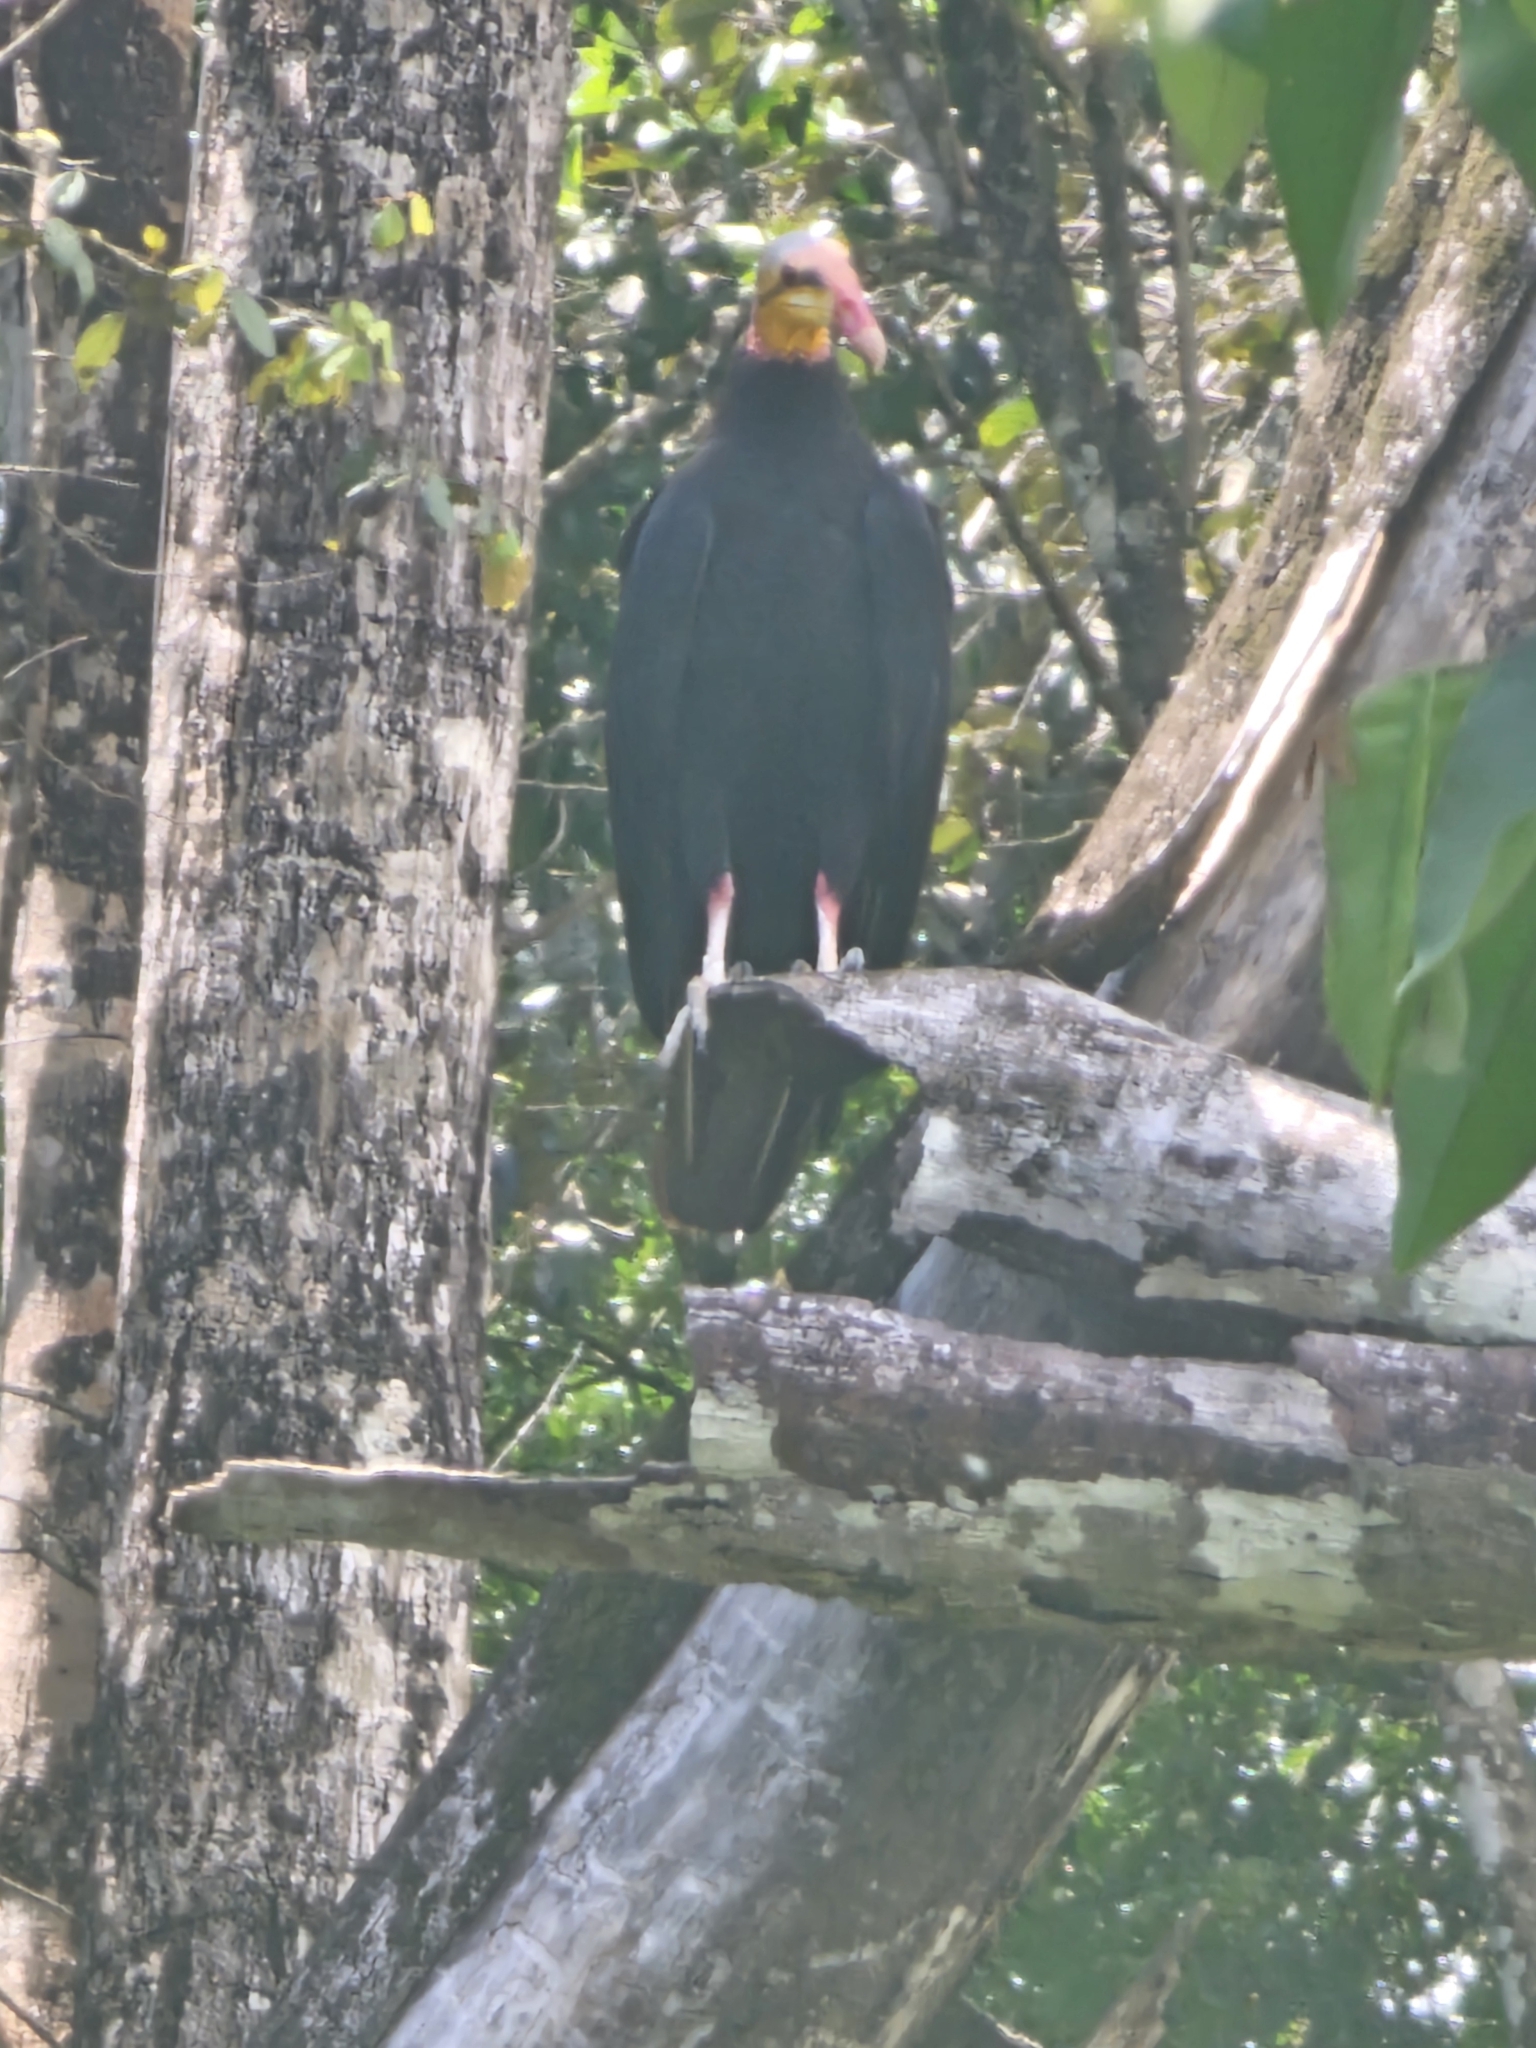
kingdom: Animalia
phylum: Chordata
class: Aves
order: Accipitriformes
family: Cathartidae
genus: Cathartes
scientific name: Cathartes melambrotus
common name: Greater yellow-headed vulture
